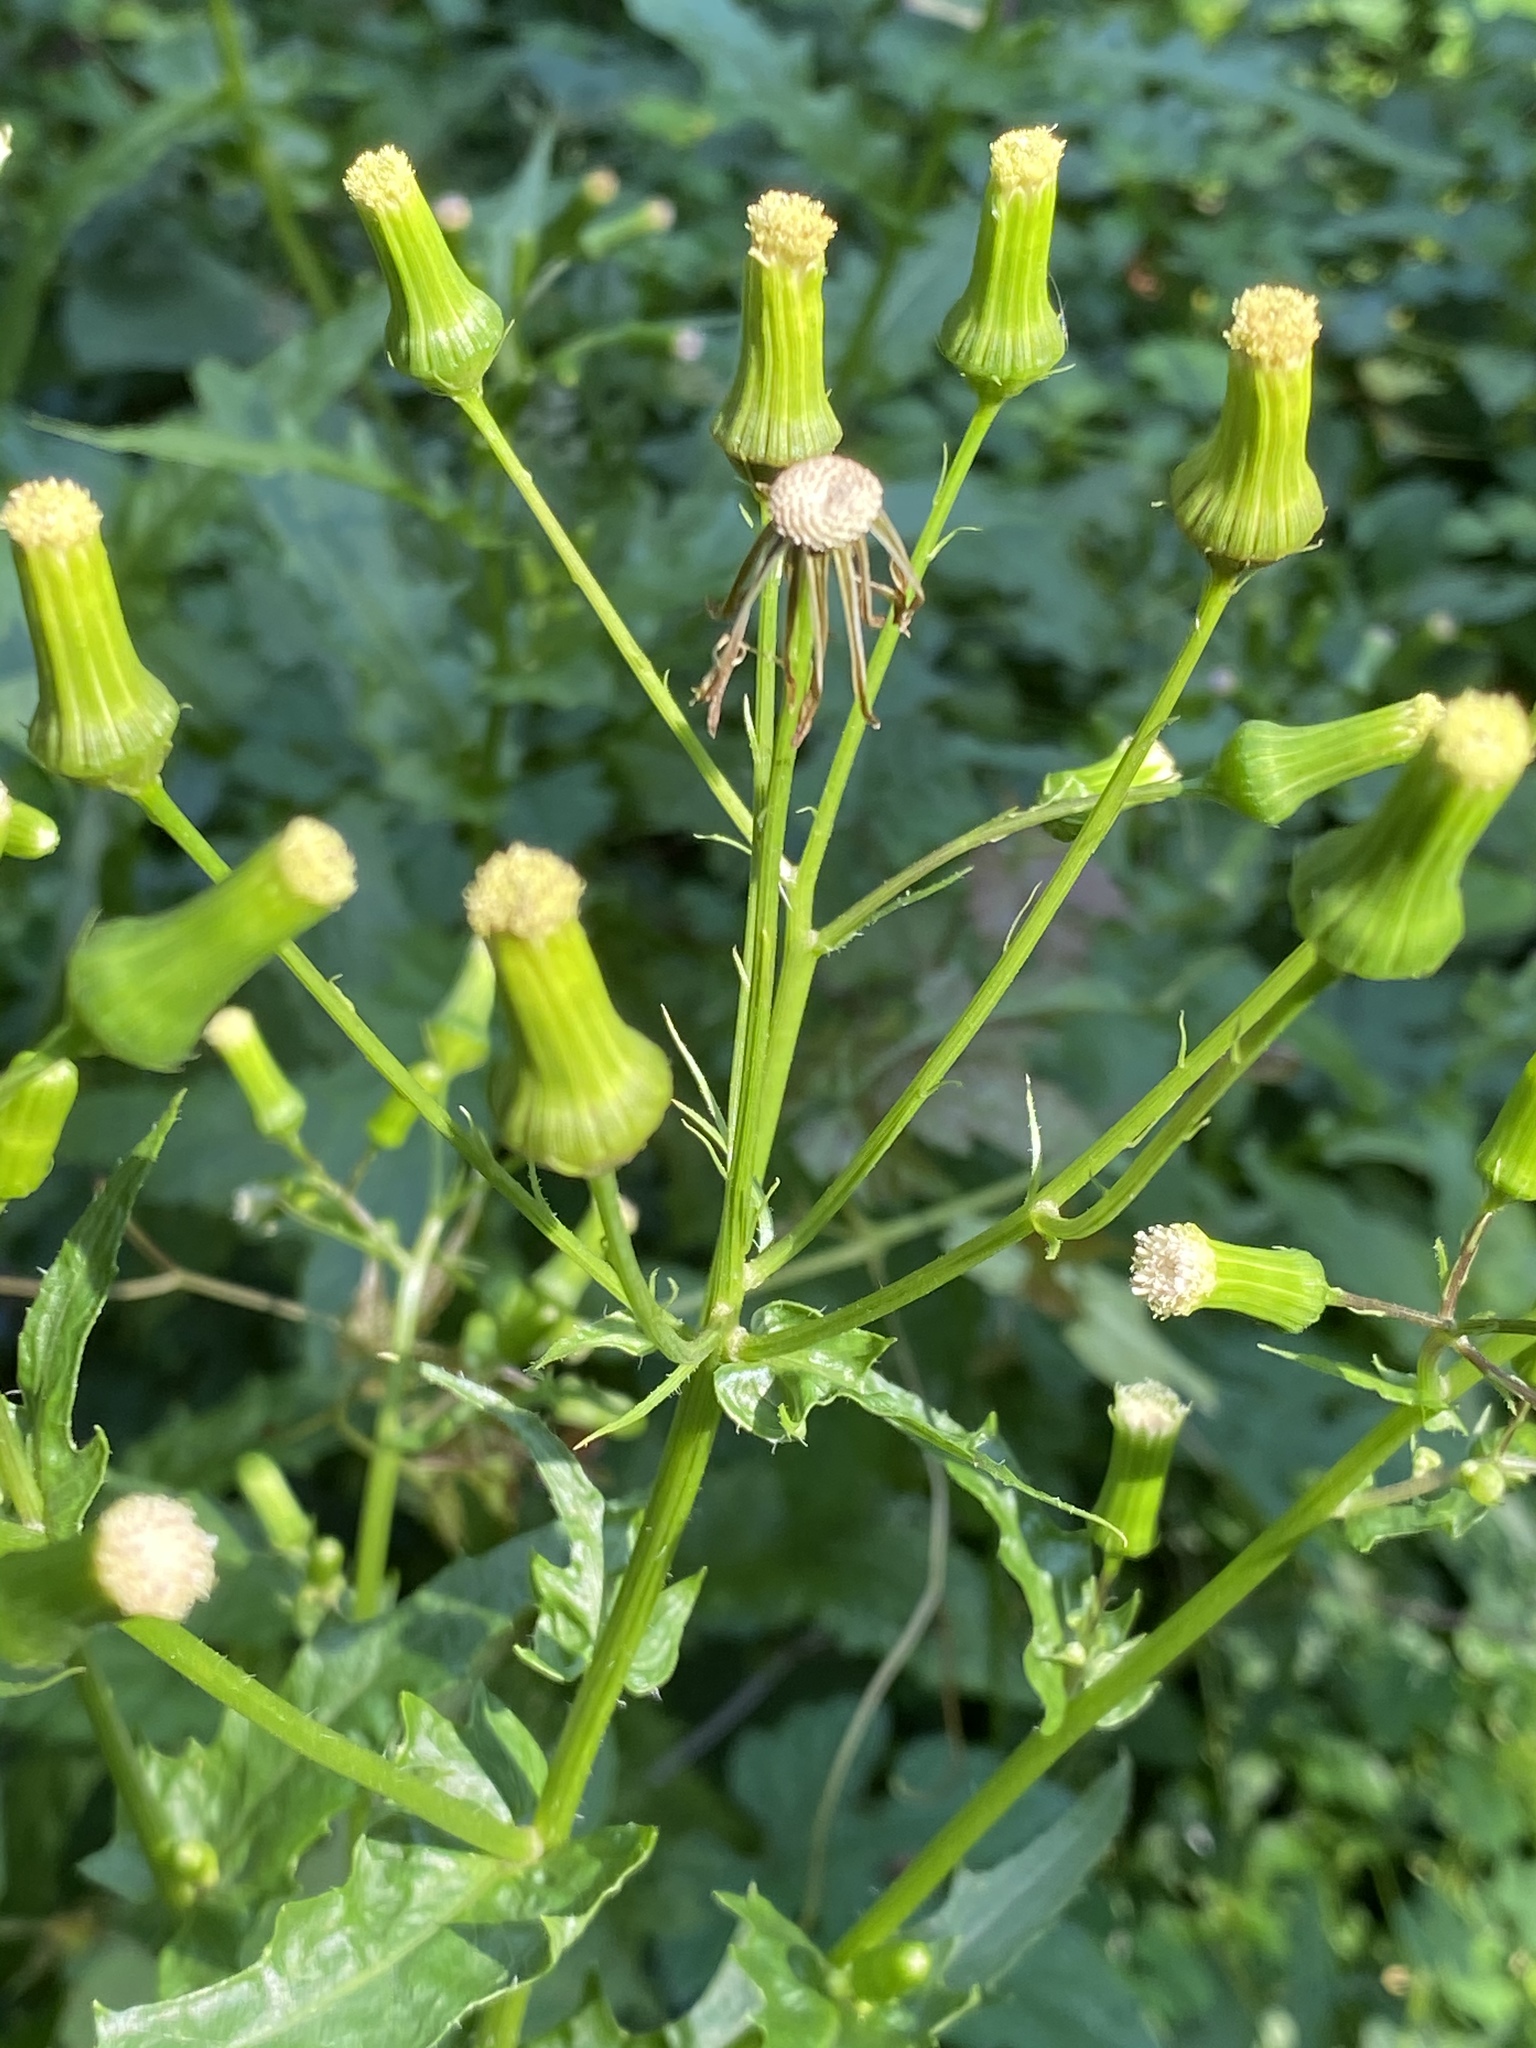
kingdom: Plantae
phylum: Tracheophyta
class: Magnoliopsida
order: Asterales
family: Asteraceae
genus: Erechtites
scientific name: Erechtites hieraciifolius
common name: American burnweed
